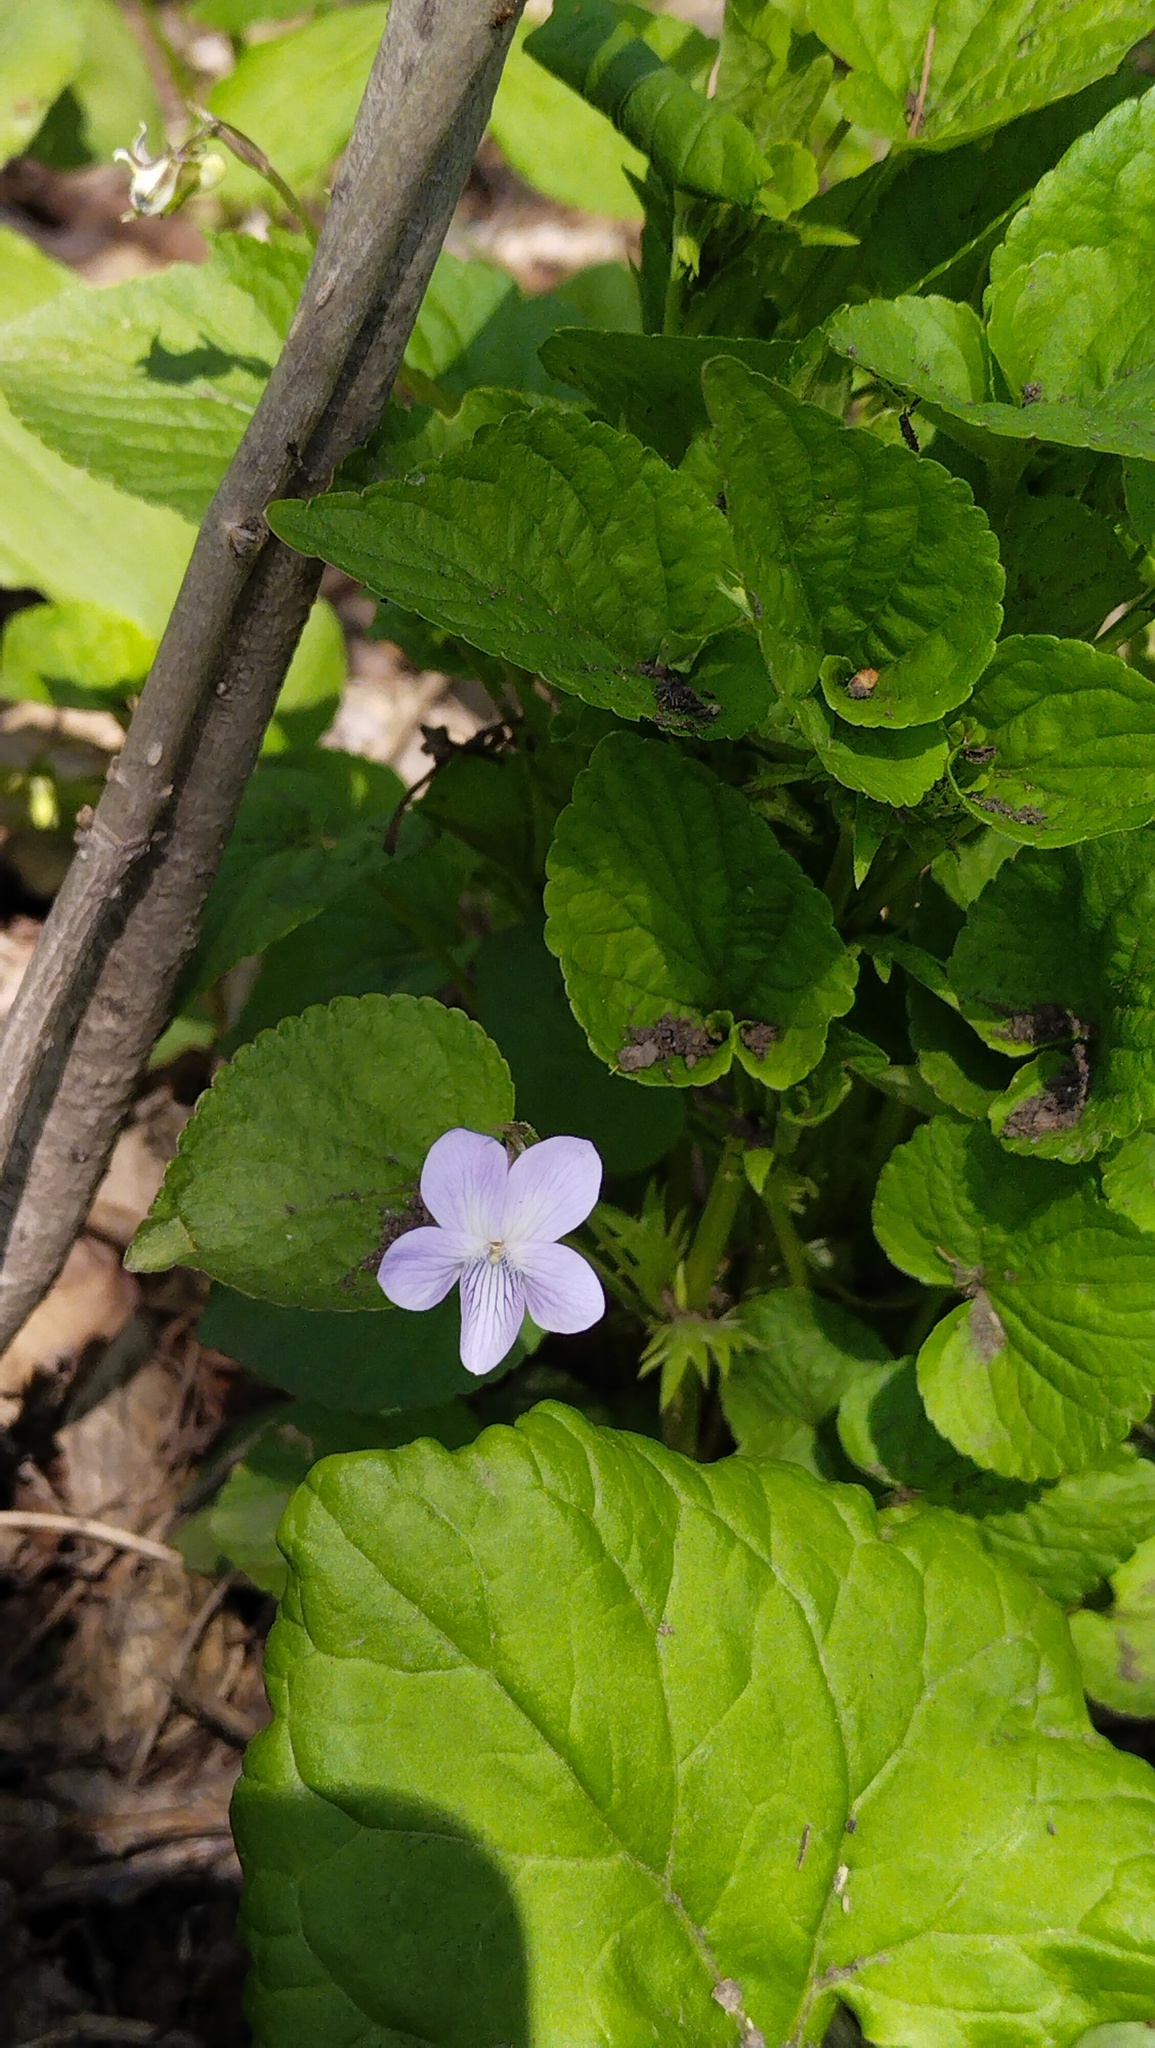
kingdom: Plantae
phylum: Tracheophyta
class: Magnoliopsida
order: Malpighiales
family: Violaceae
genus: Viola
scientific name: Viola acuminata
